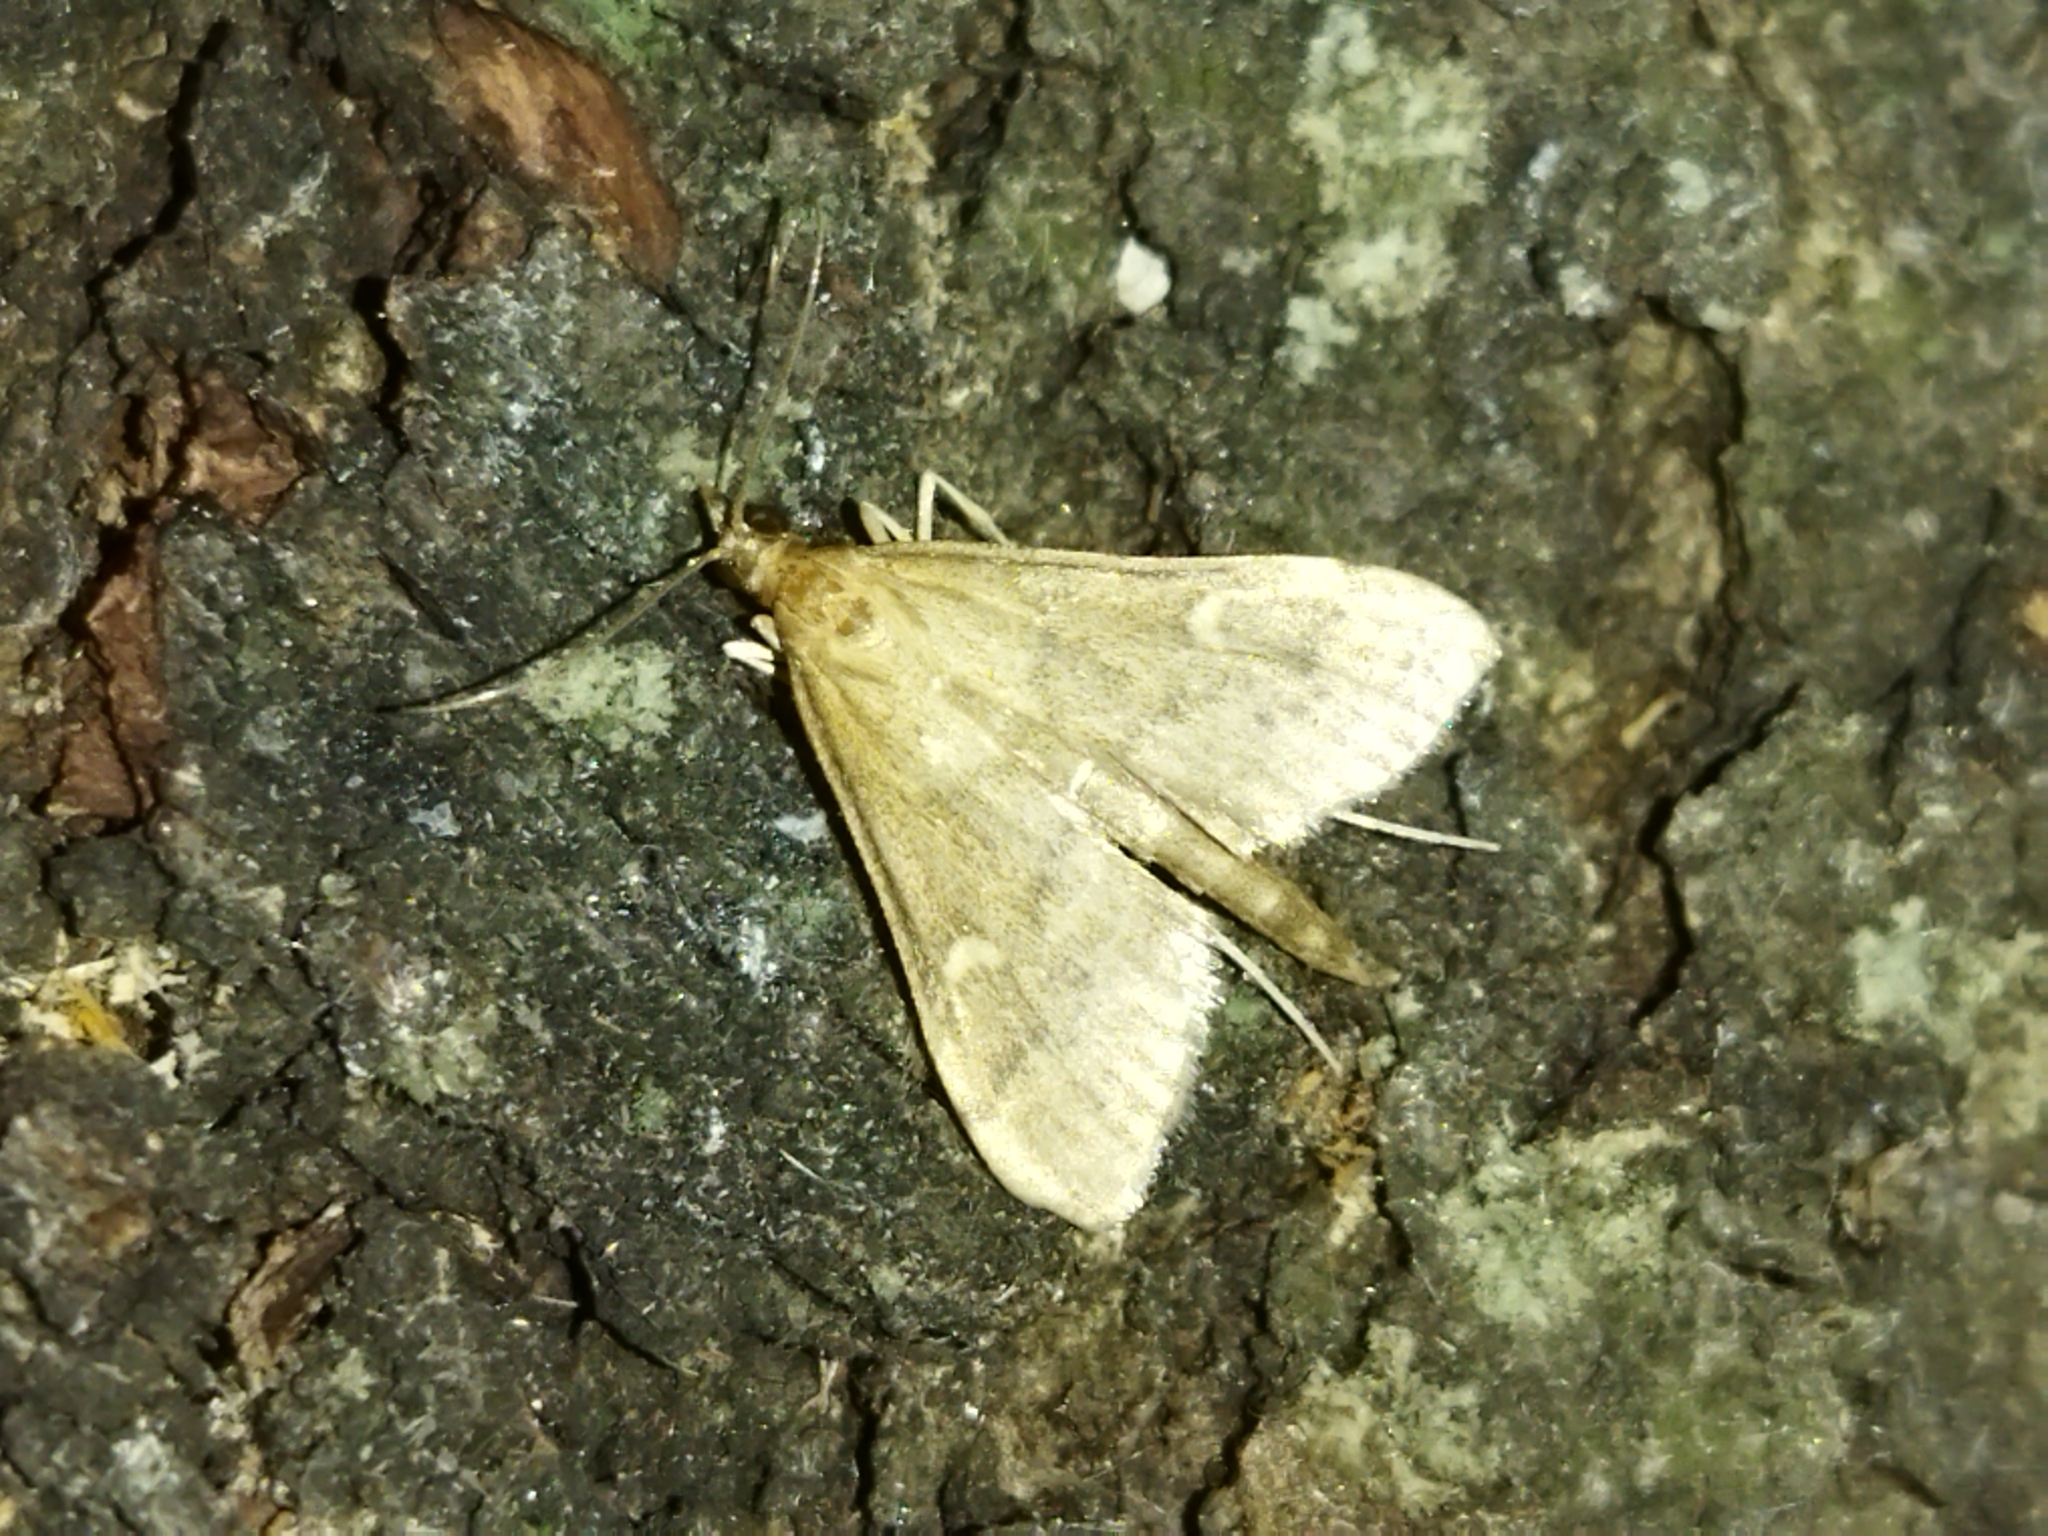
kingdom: Animalia
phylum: Arthropoda
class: Insecta
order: Lepidoptera
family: Crambidae
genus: Stenia
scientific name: Stenia Dolicharthria punctalis
